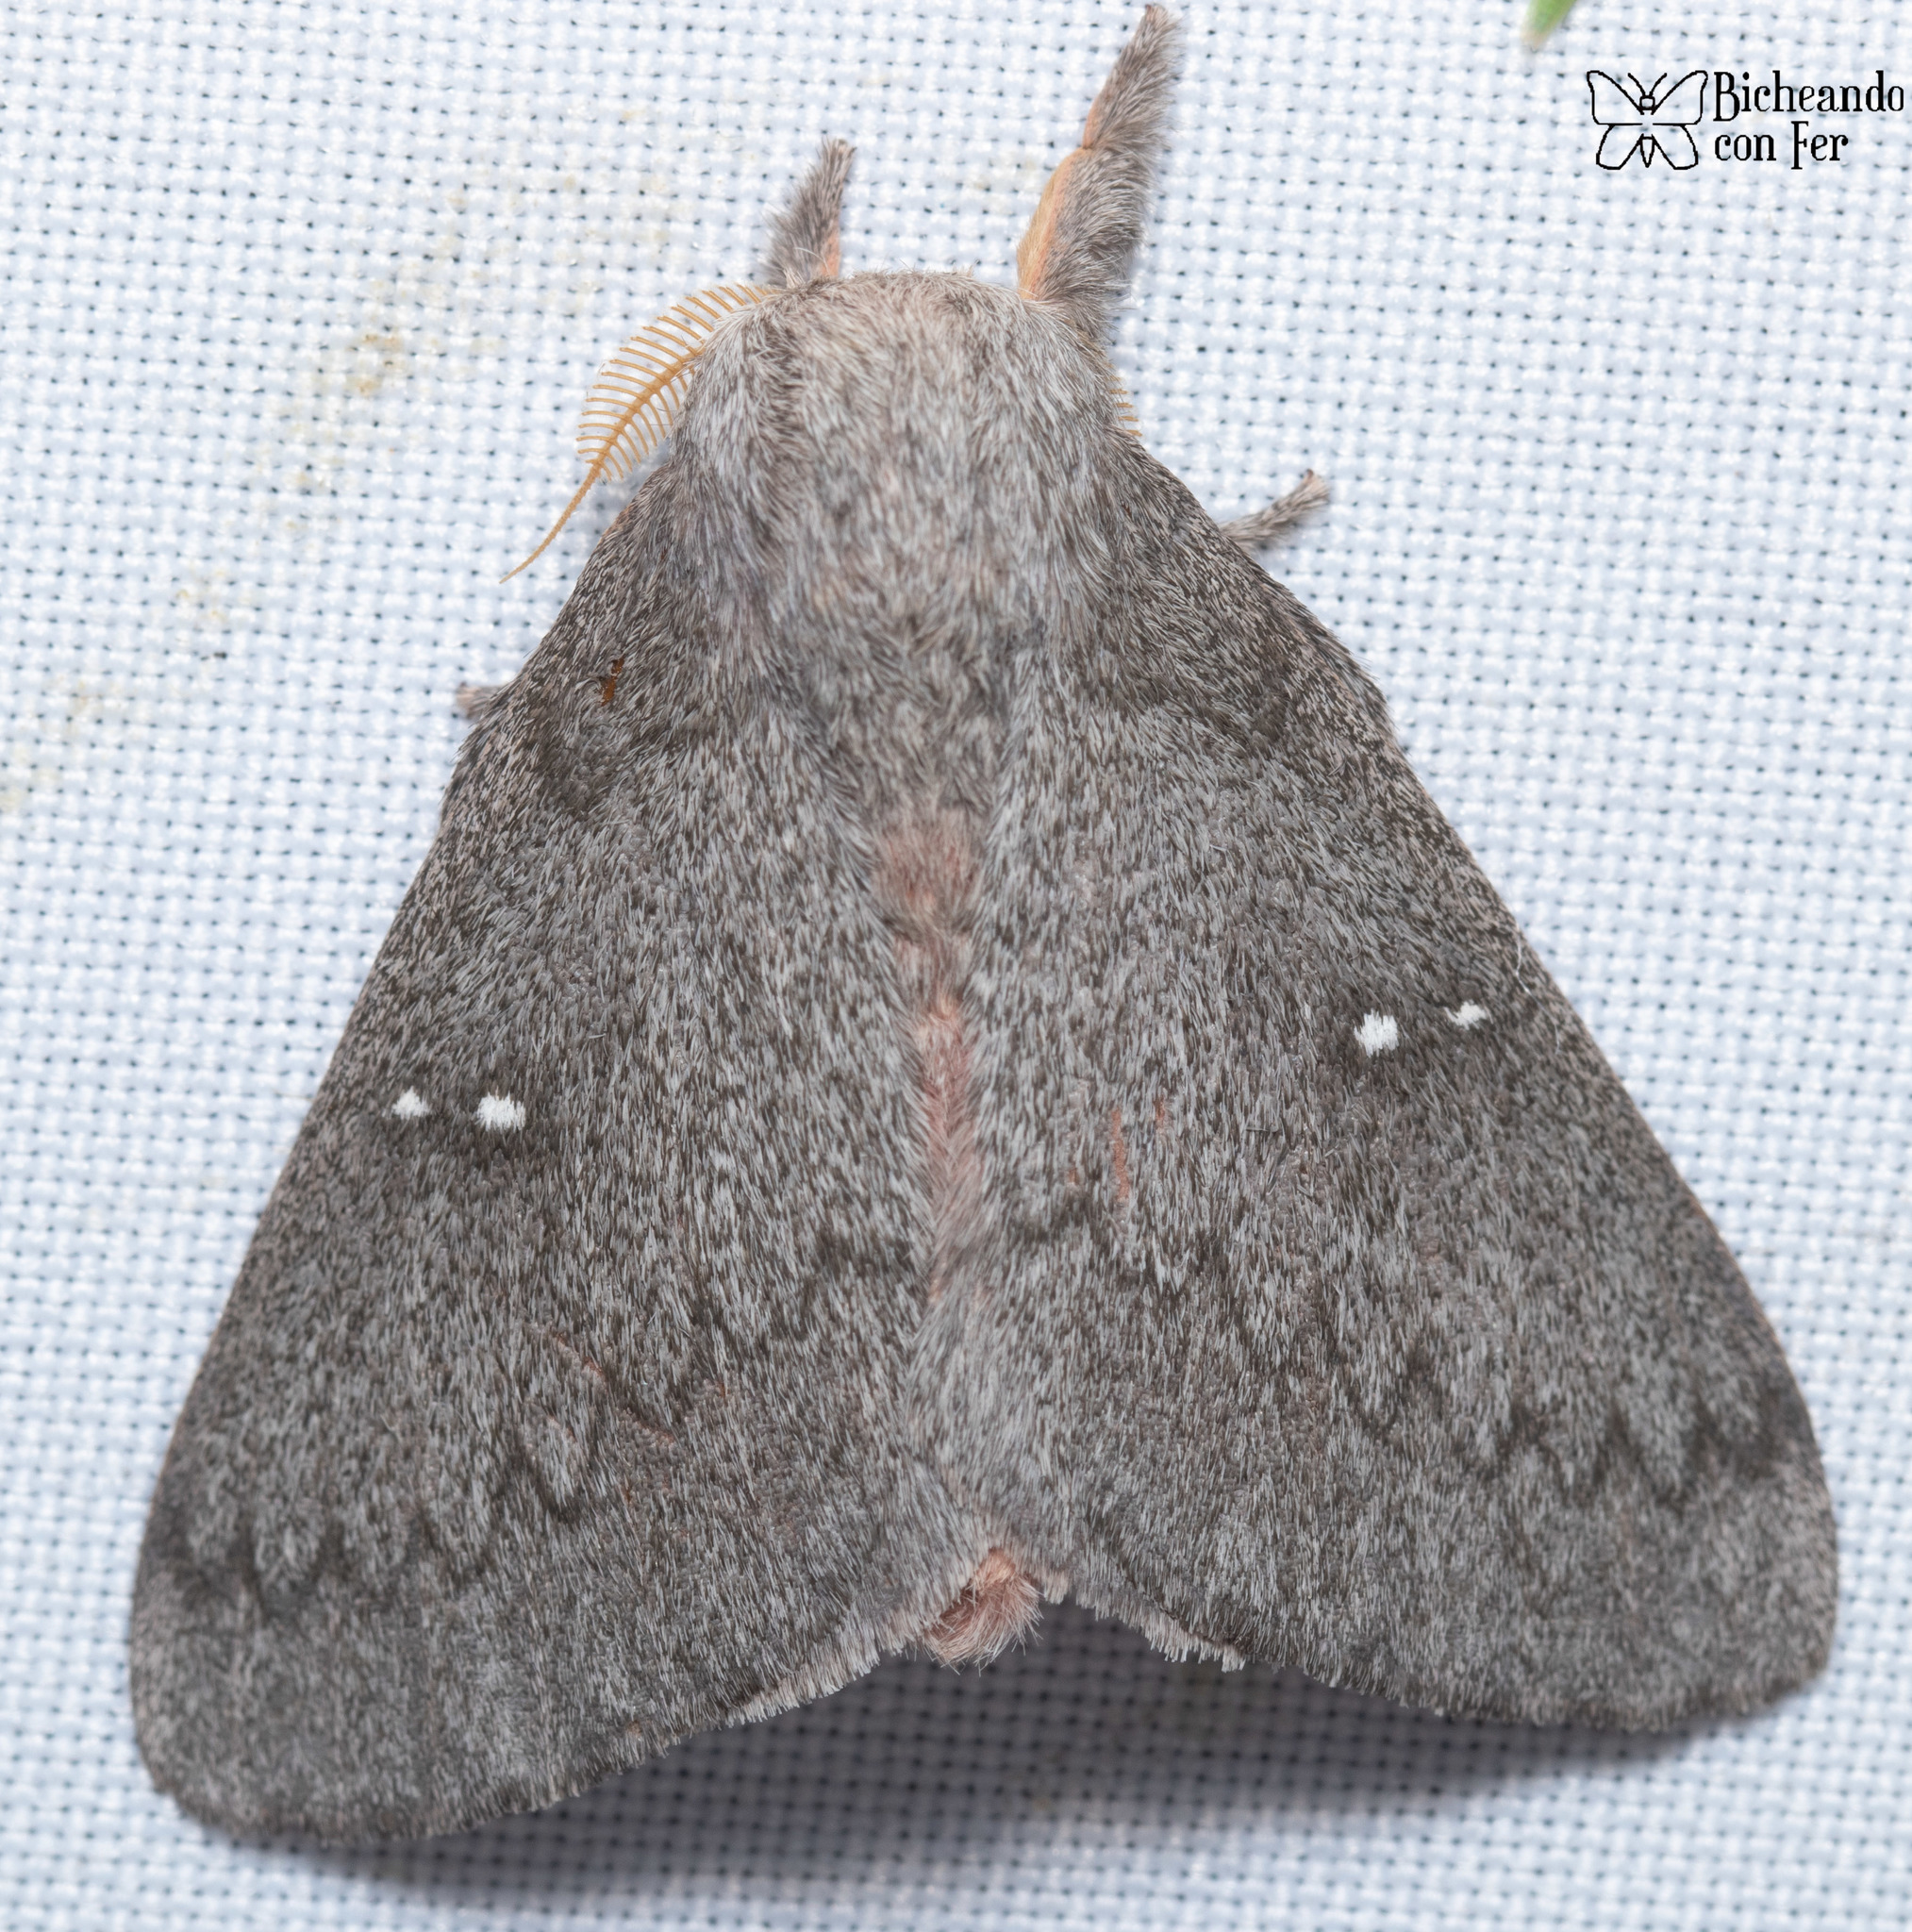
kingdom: Animalia
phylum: Arthropoda
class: Insecta
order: Lepidoptera
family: Saturniidae
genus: Syssphinx
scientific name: Syssphinx hubbardi
